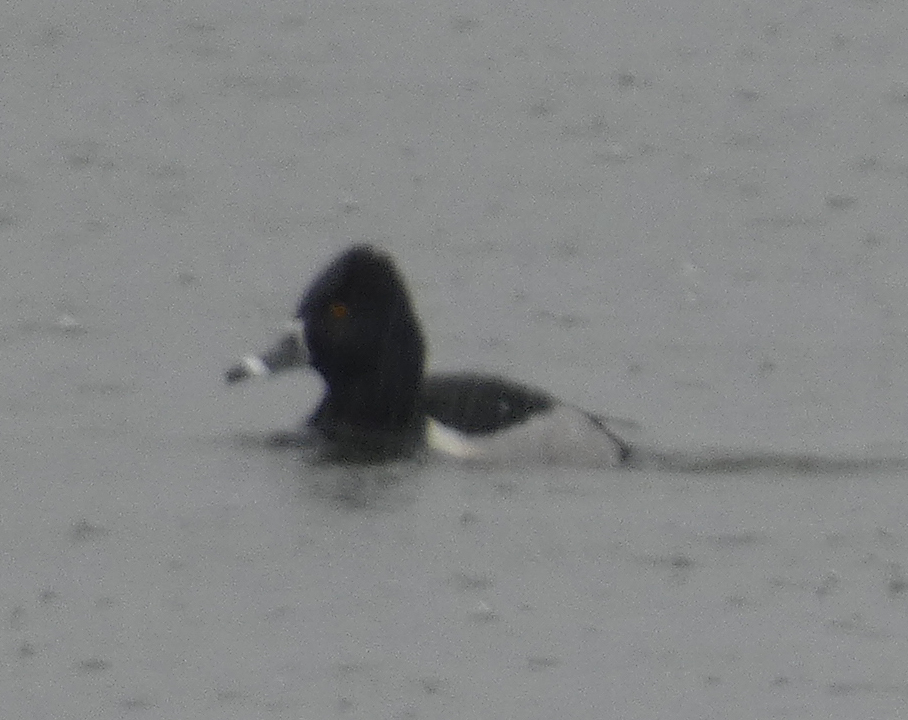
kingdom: Animalia
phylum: Chordata
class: Aves
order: Anseriformes
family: Anatidae
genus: Aythya
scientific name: Aythya collaris
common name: Ring-necked duck
